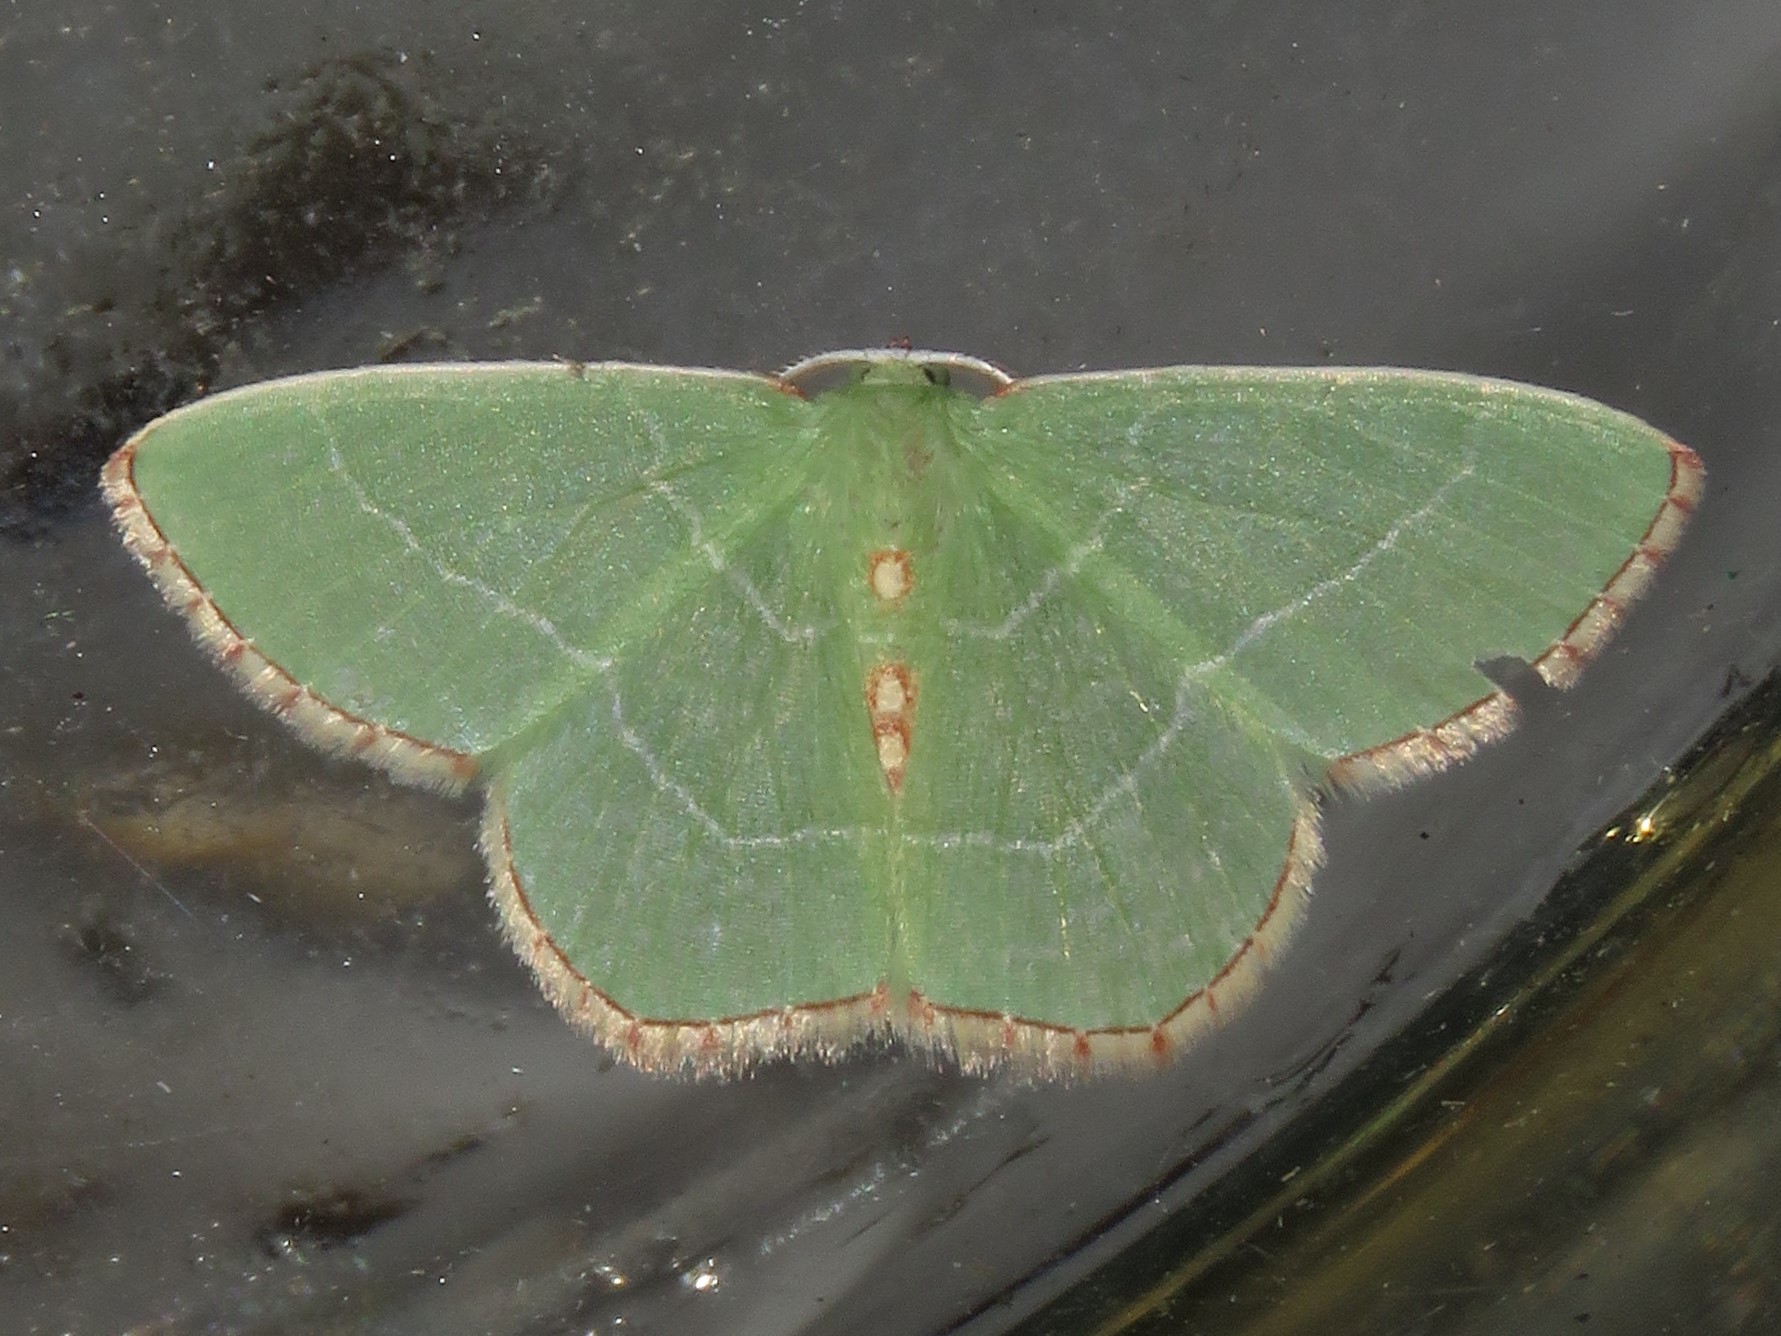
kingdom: Animalia
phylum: Arthropoda
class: Insecta
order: Lepidoptera
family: Geometridae
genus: Nemoria
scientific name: Nemoria bistriaria
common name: Red-fringed emerald
